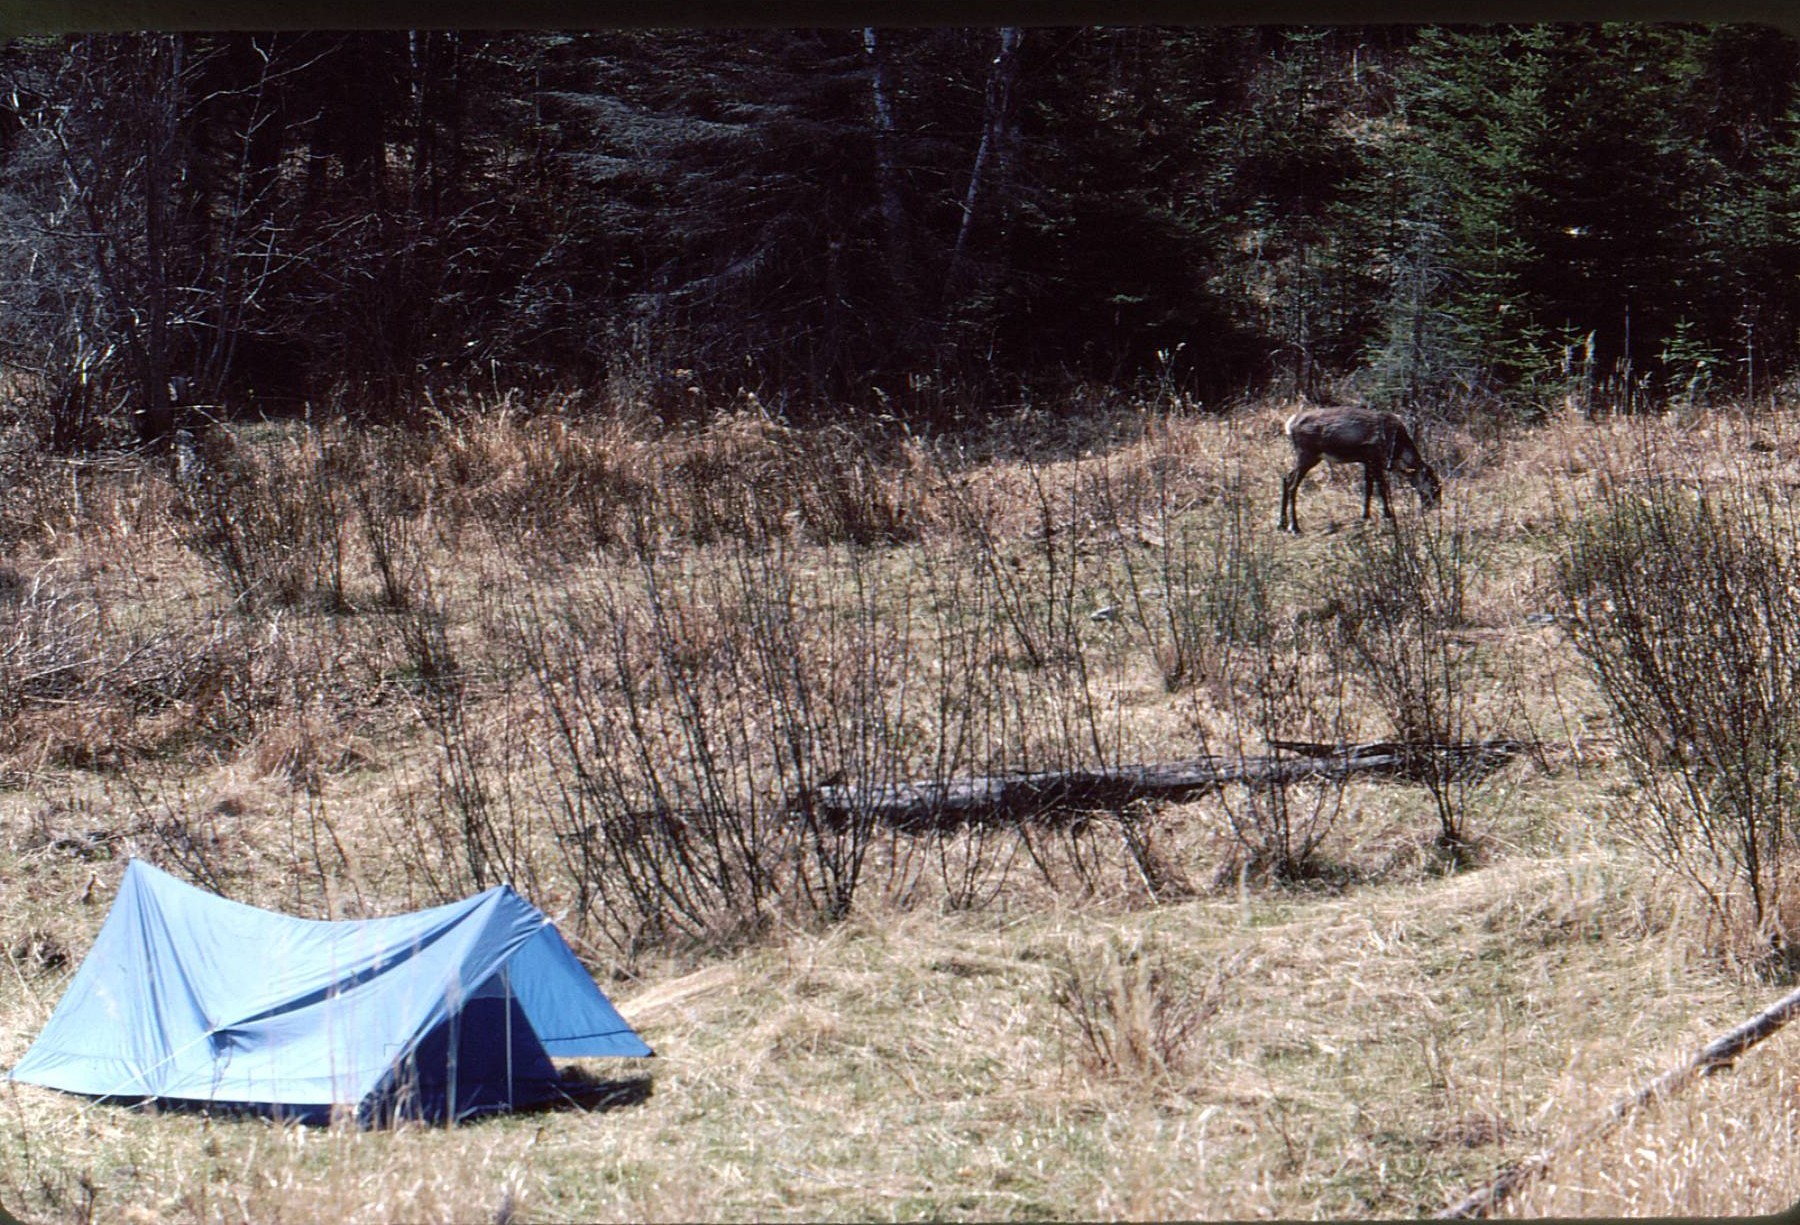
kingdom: Animalia
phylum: Chordata
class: Mammalia
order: Artiodactyla
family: Cervidae
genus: Rangifer
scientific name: Rangifer tarandus
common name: Reindeer
